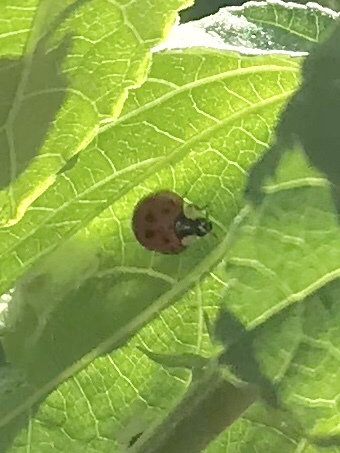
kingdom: Animalia
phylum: Arthropoda
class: Insecta
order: Coleoptera
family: Coccinellidae
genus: Harmonia
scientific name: Harmonia axyridis
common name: Harlequin ladybird
